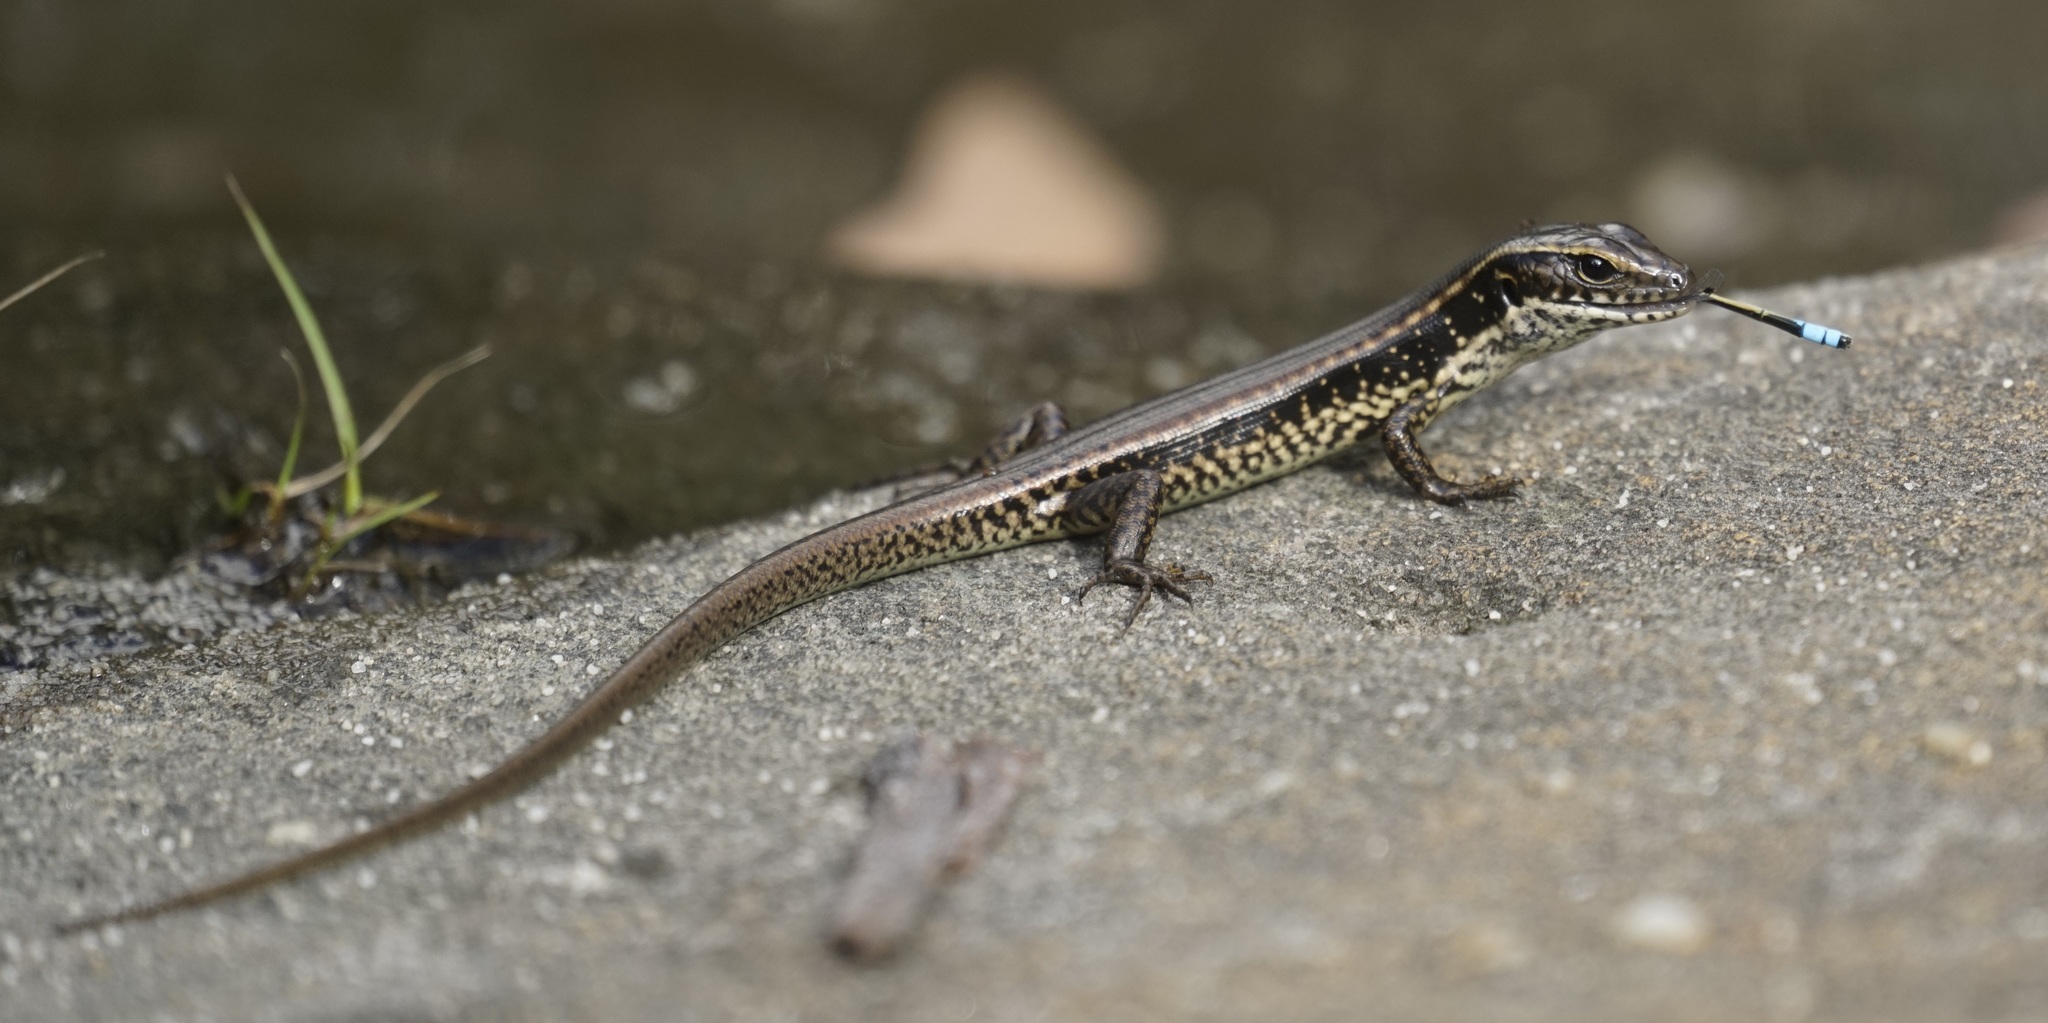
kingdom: Animalia
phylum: Arthropoda
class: Insecta
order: Odonata
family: Coenagrionidae
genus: Ischnura
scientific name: Ischnura heterosticta
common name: Common bluetail
